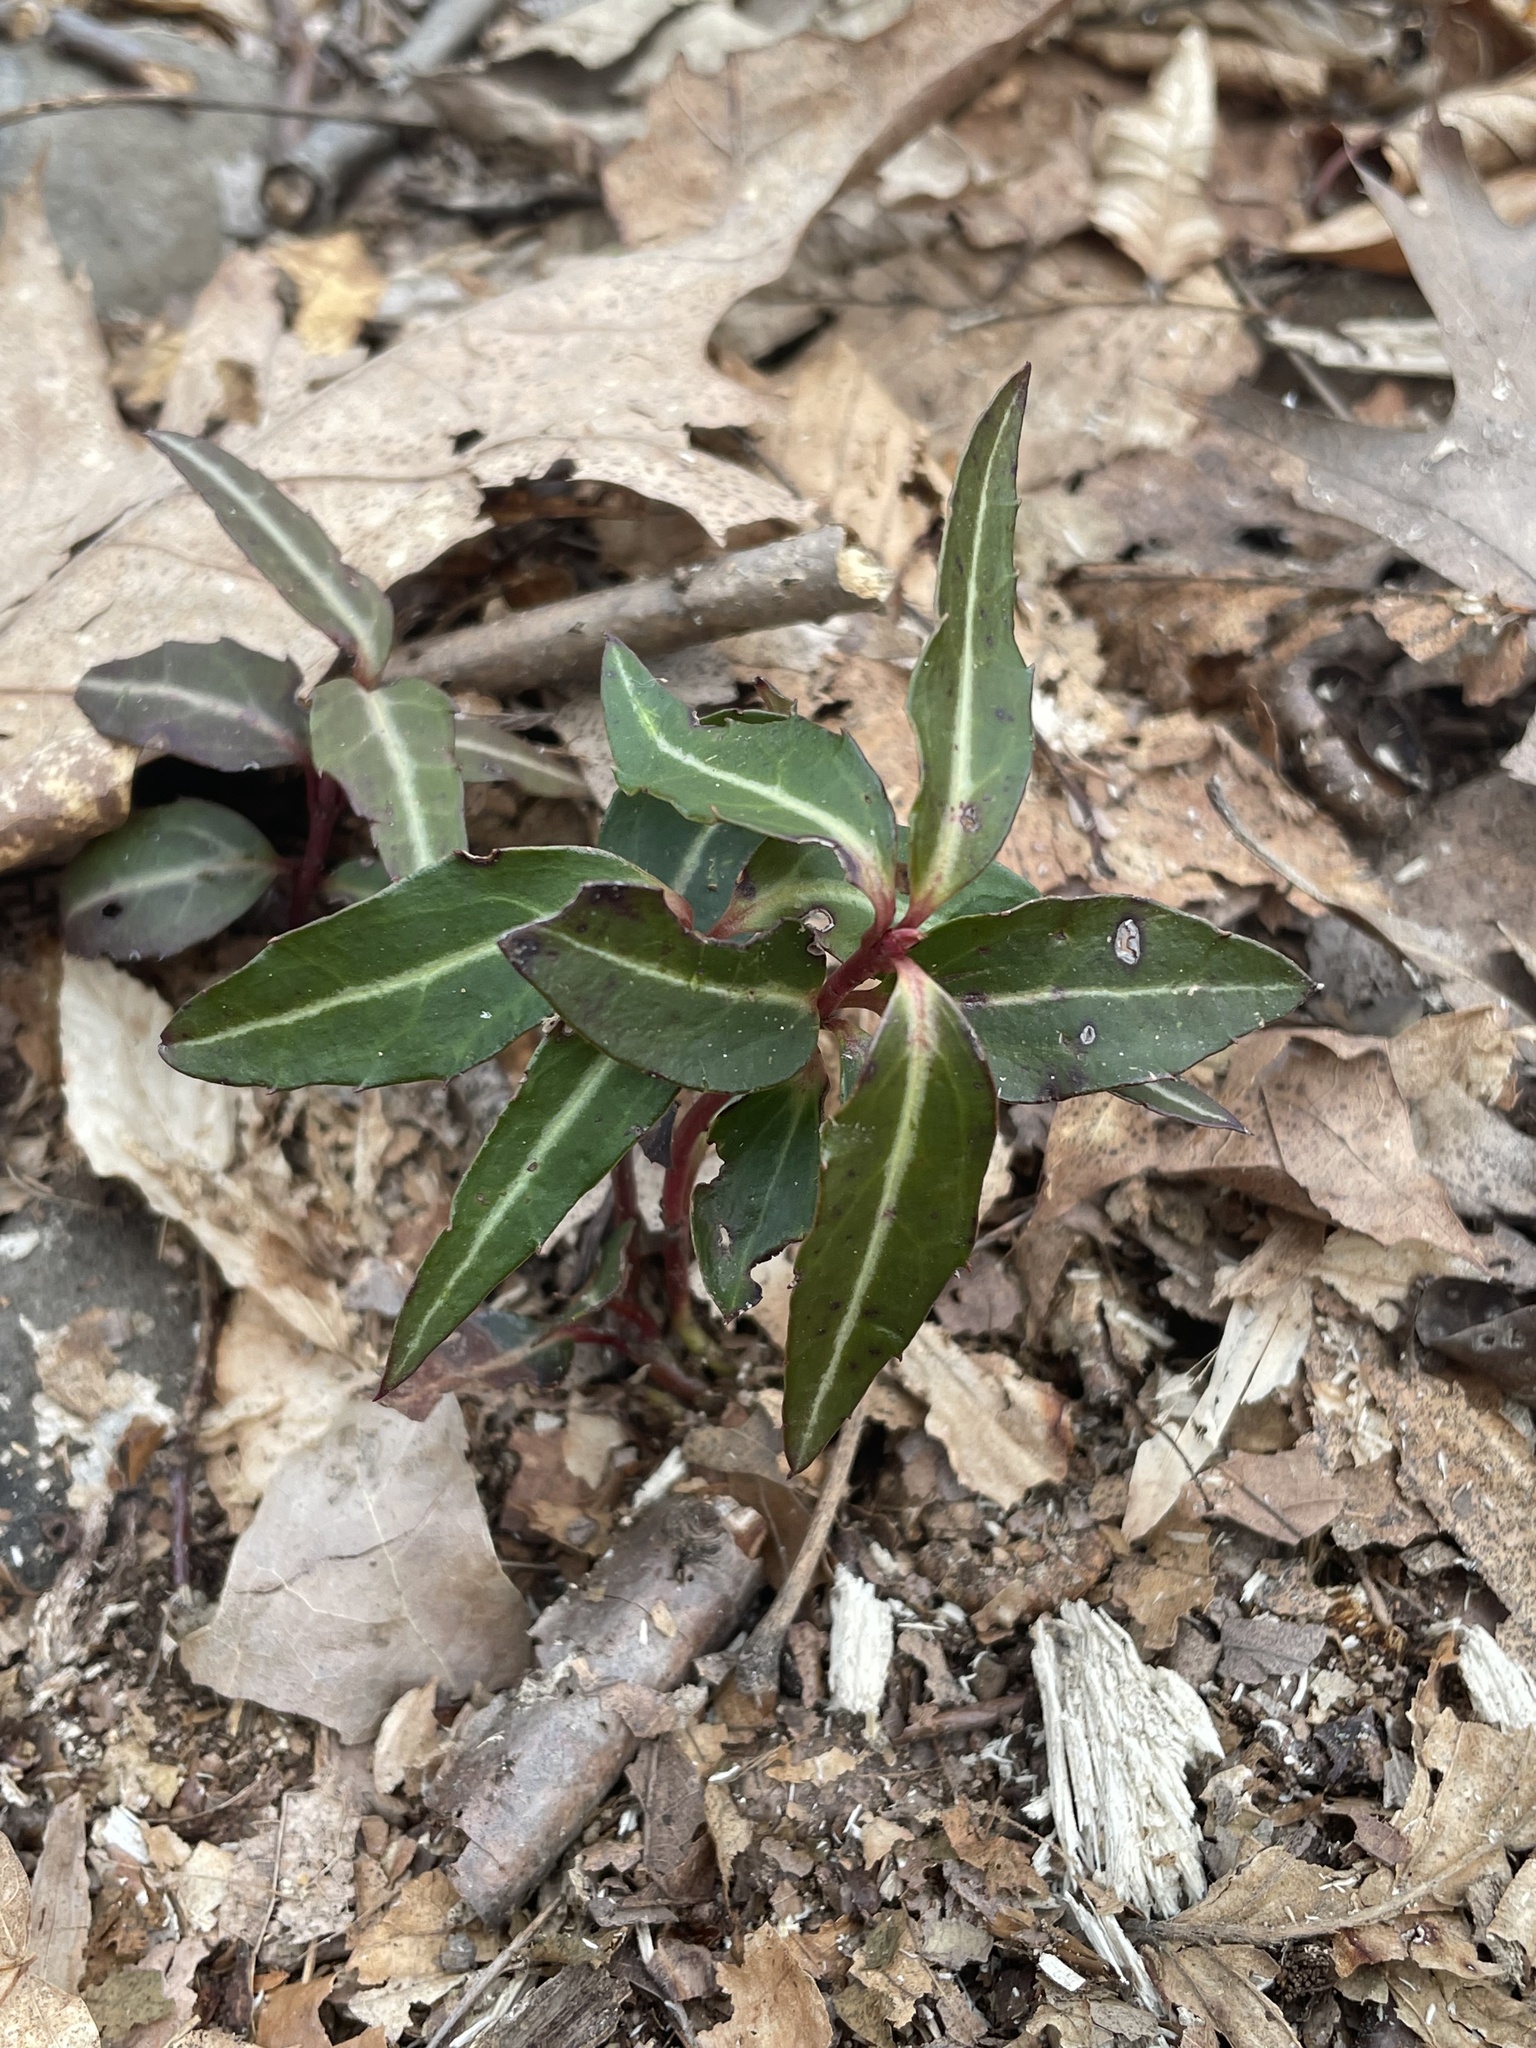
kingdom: Plantae
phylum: Tracheophyta
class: Magnoliopsida
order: Ericales
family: Ericaceae
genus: Chimaphila
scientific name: Chimaphila maculata
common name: Spotted pipsissewa
